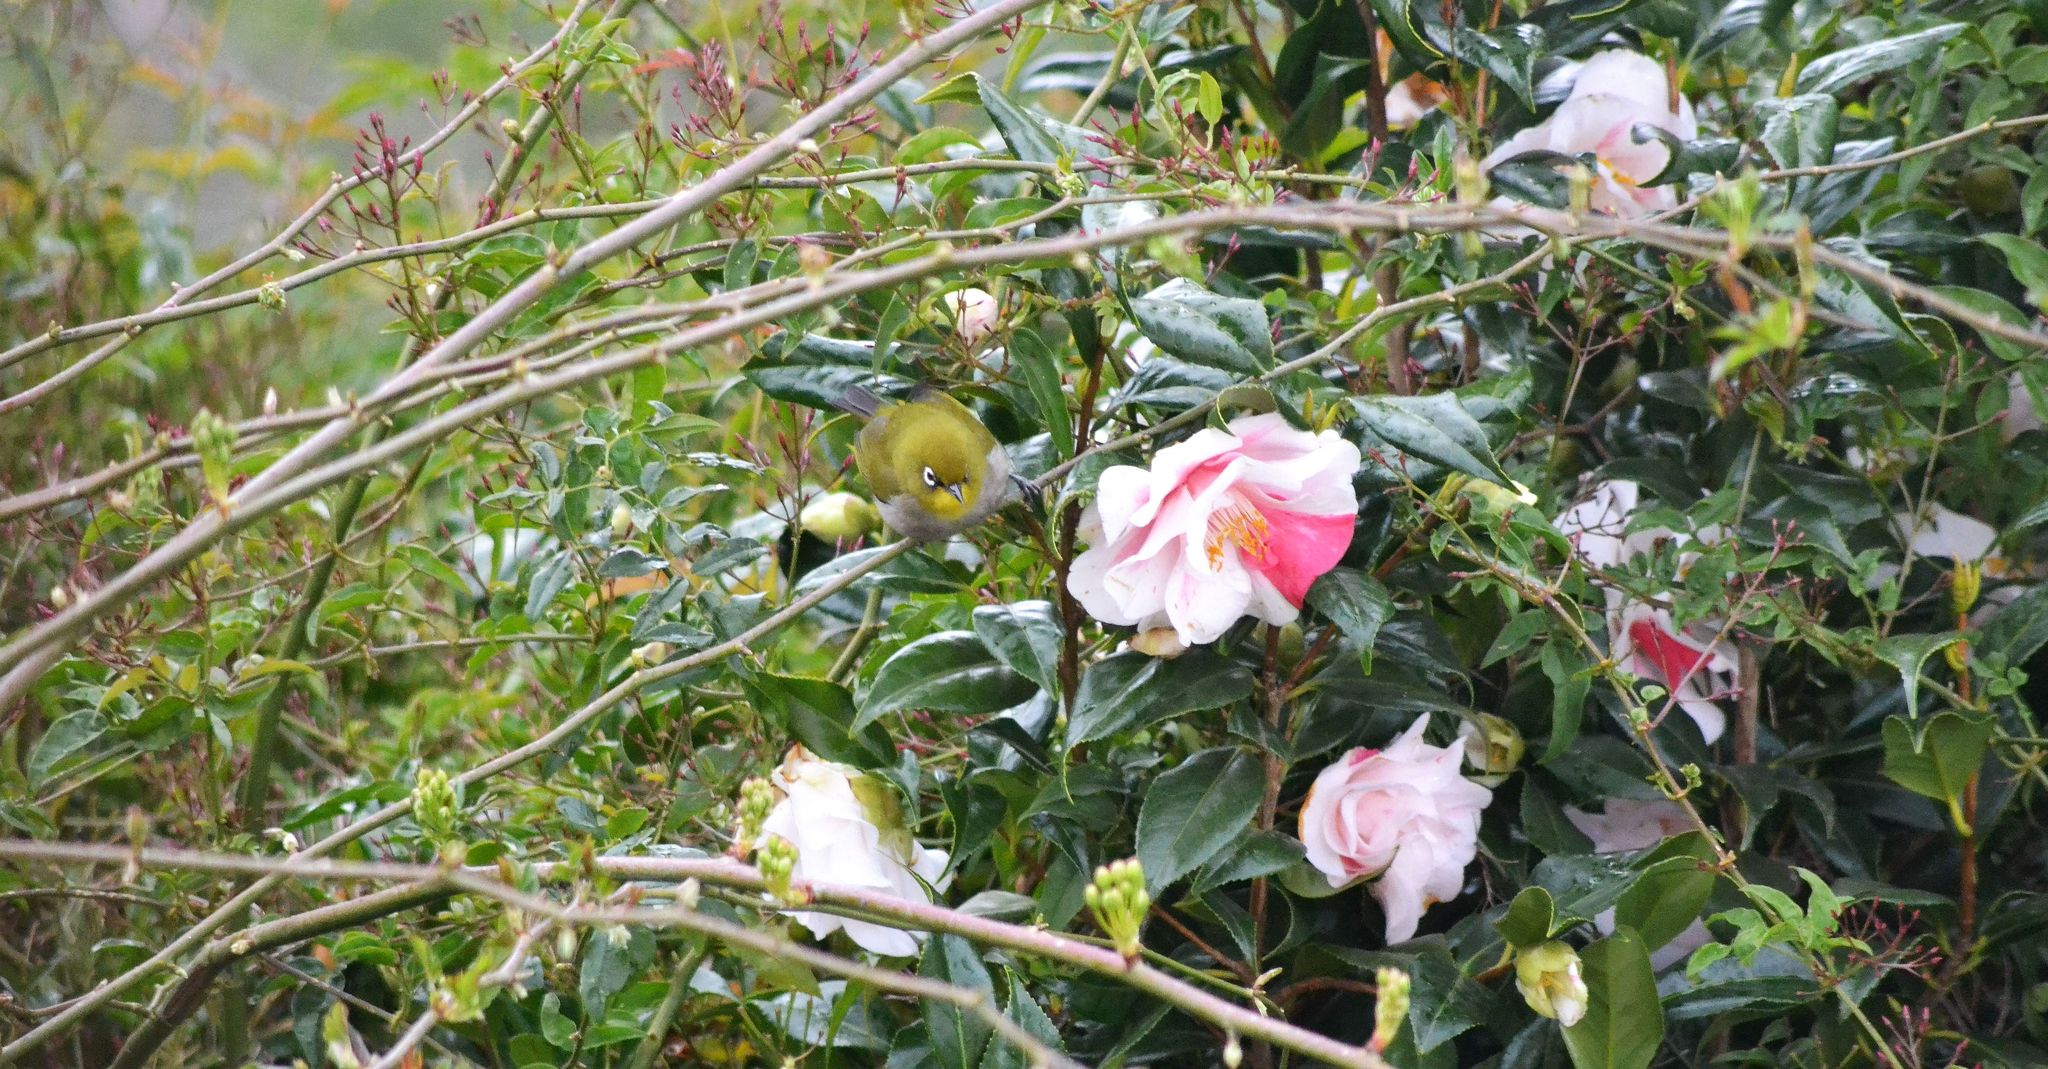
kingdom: Animalia
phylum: Chordata
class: Aves
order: Passeriformes
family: Zosteropidae
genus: Zosterops
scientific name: Zosterops virens
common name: Cape white-eye
